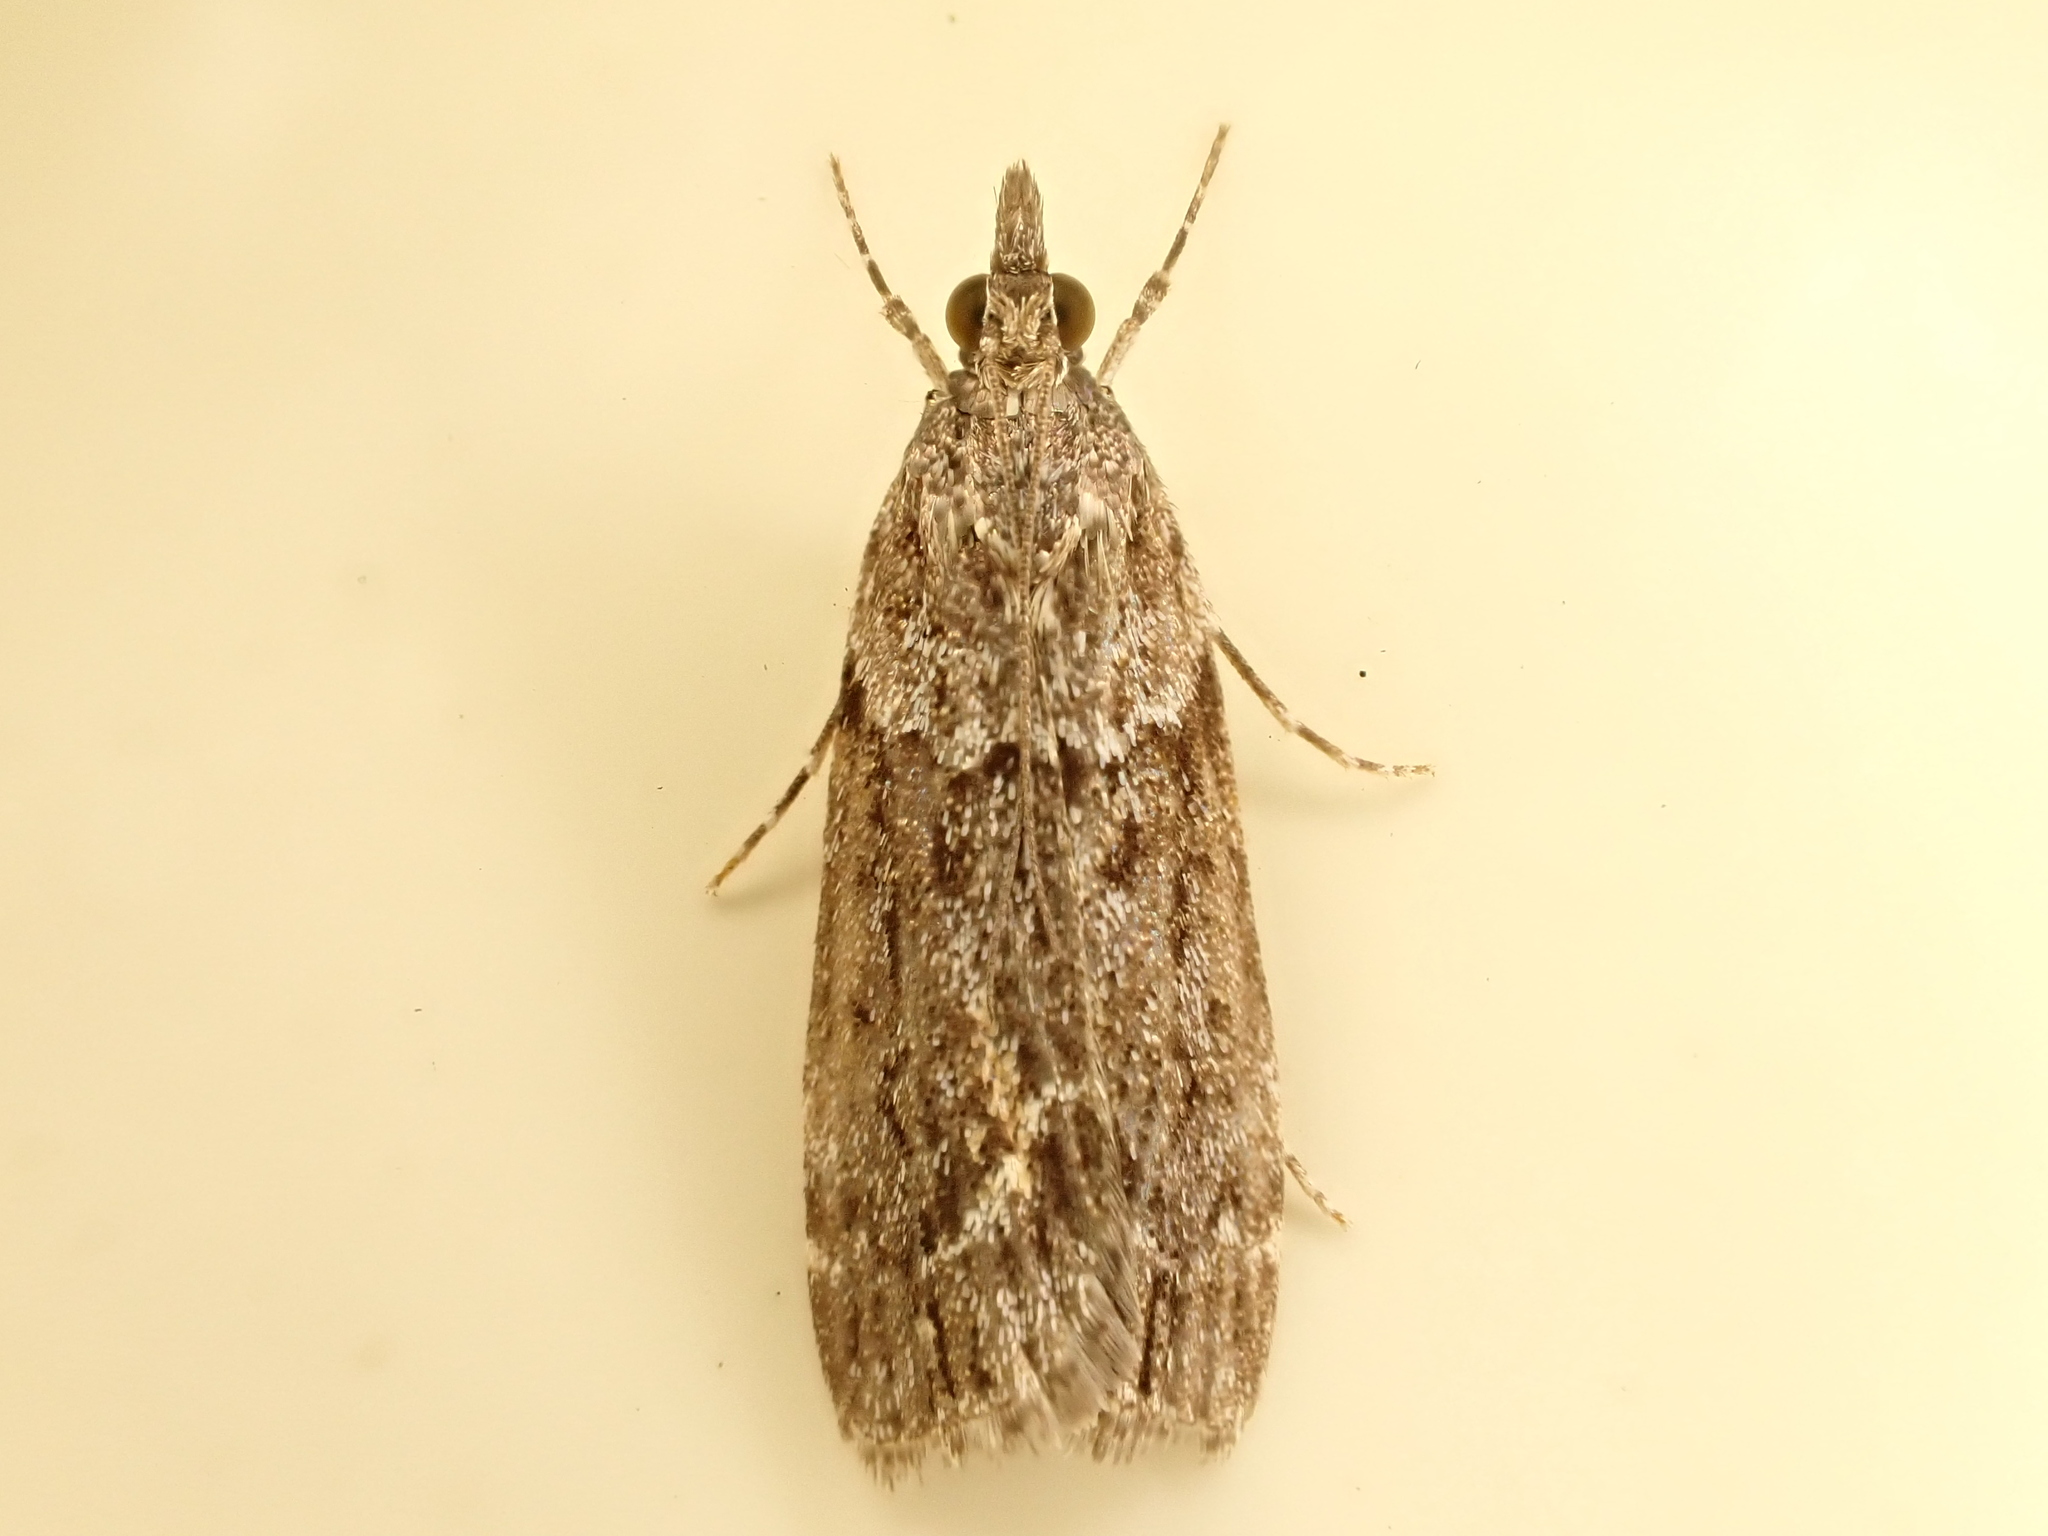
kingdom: Animalia
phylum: Arthropoda
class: Insecta
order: Lepidoptera
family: Crambidae
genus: Eudonia
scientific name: Eudonia submarginalis
